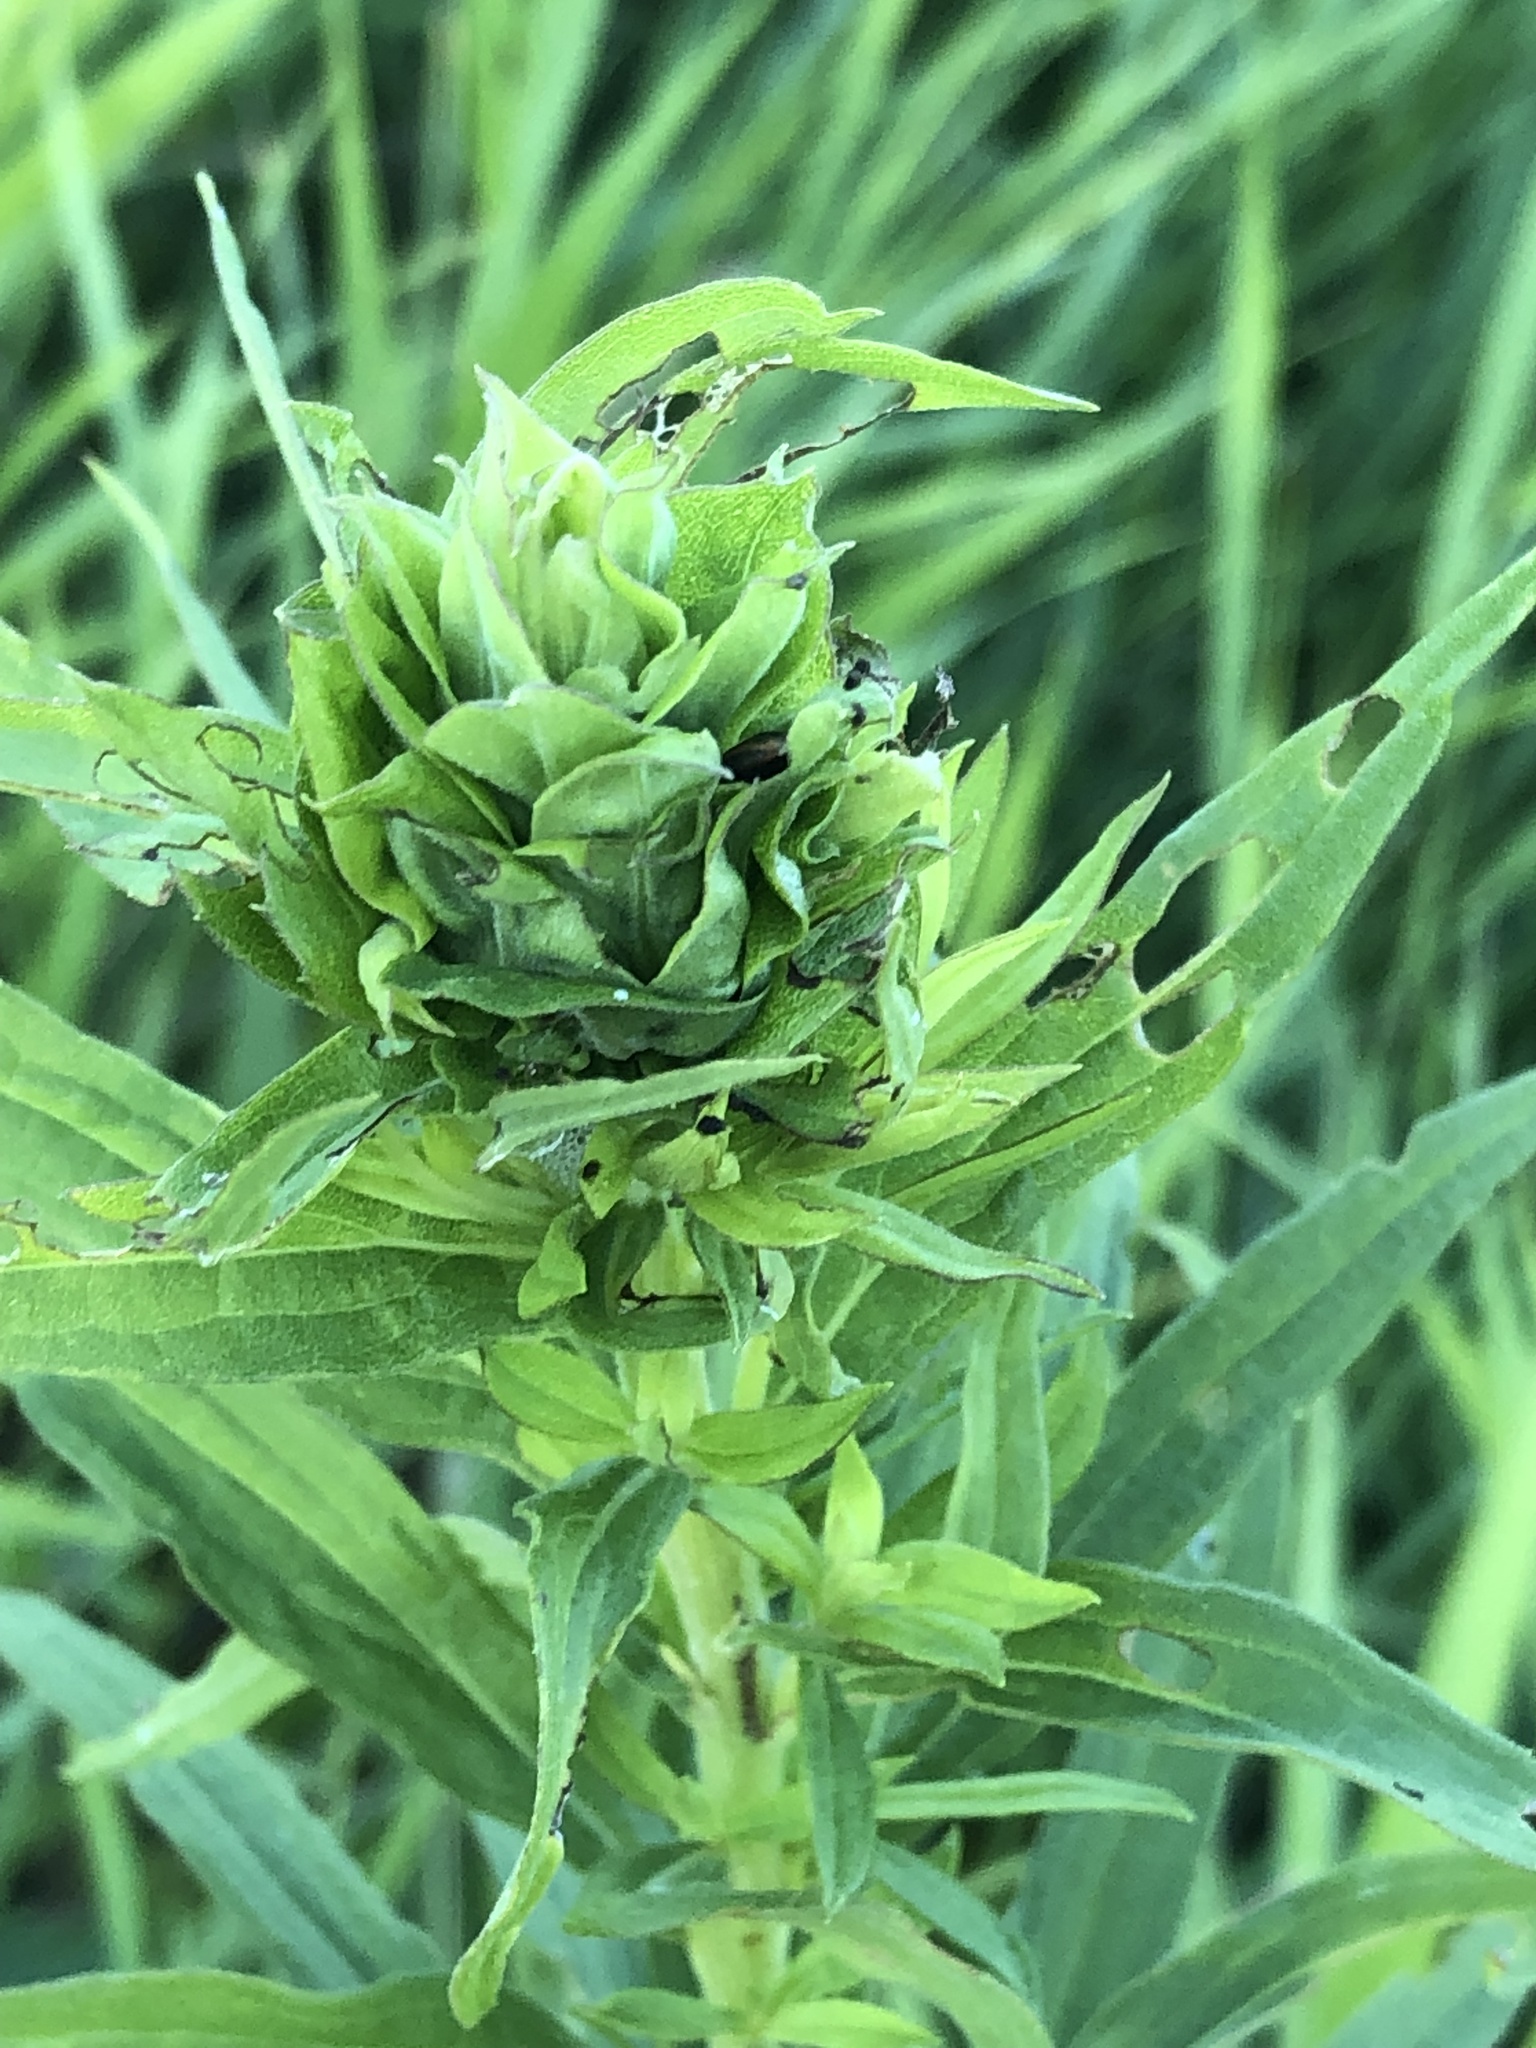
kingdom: Animalia
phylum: Arthropoda
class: Insecta
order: Diptera
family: Cecidomyiidae
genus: Rhopalomyia
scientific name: Rhopalomyia solidaginis
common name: Goldenrod bunch gall midge
